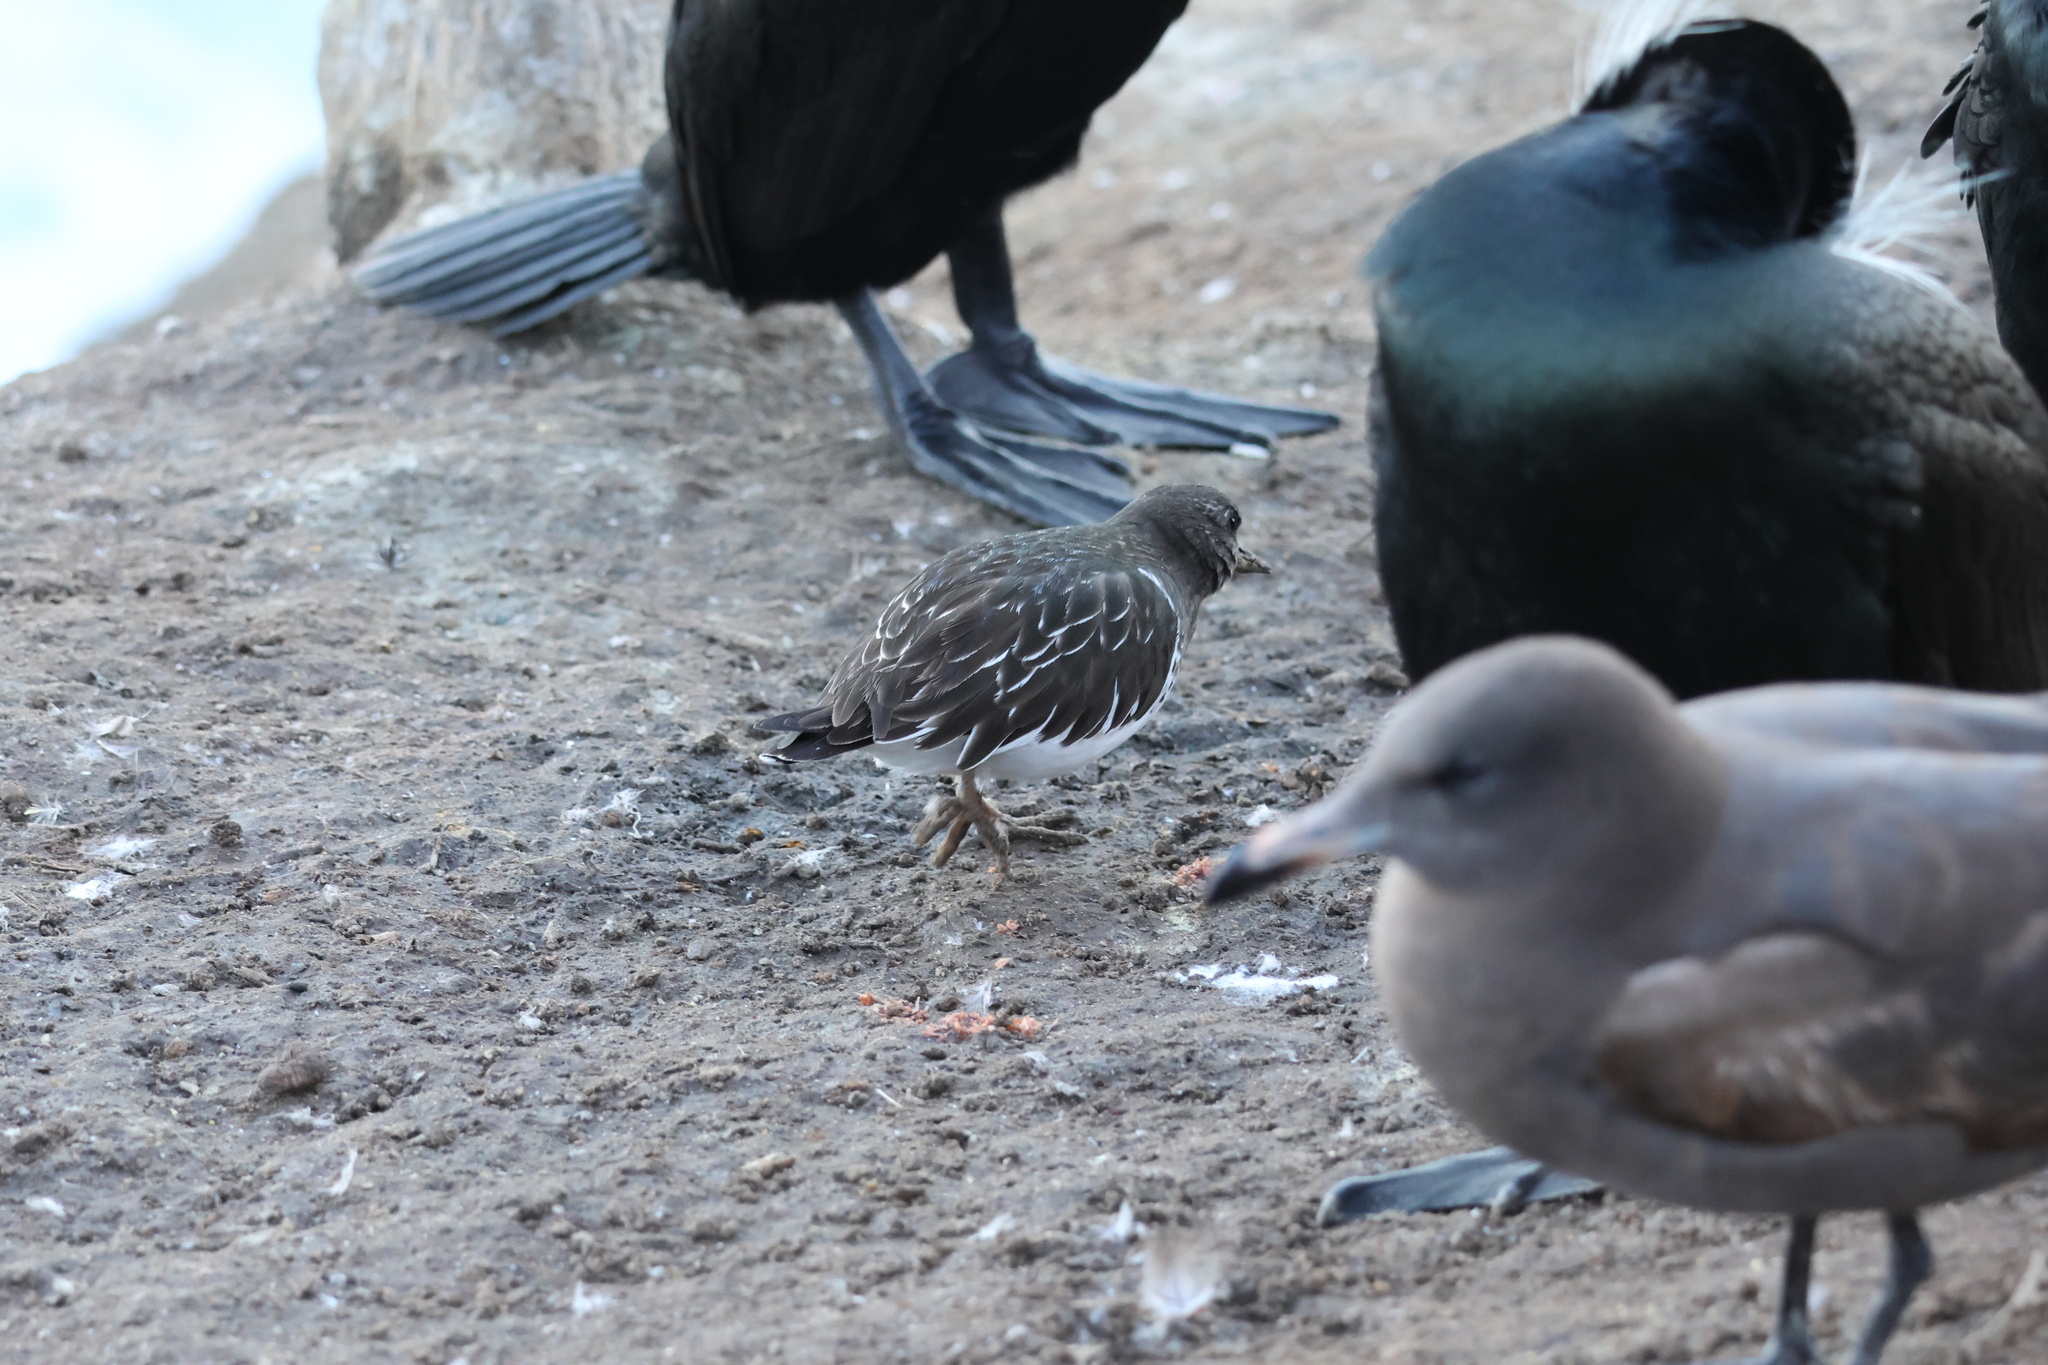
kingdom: Animalia
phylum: Chordata
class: Aves
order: Charadriiformes
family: Scolopacidae
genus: Arenaria
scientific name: Arenaria melanocephala
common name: Black turnstone
